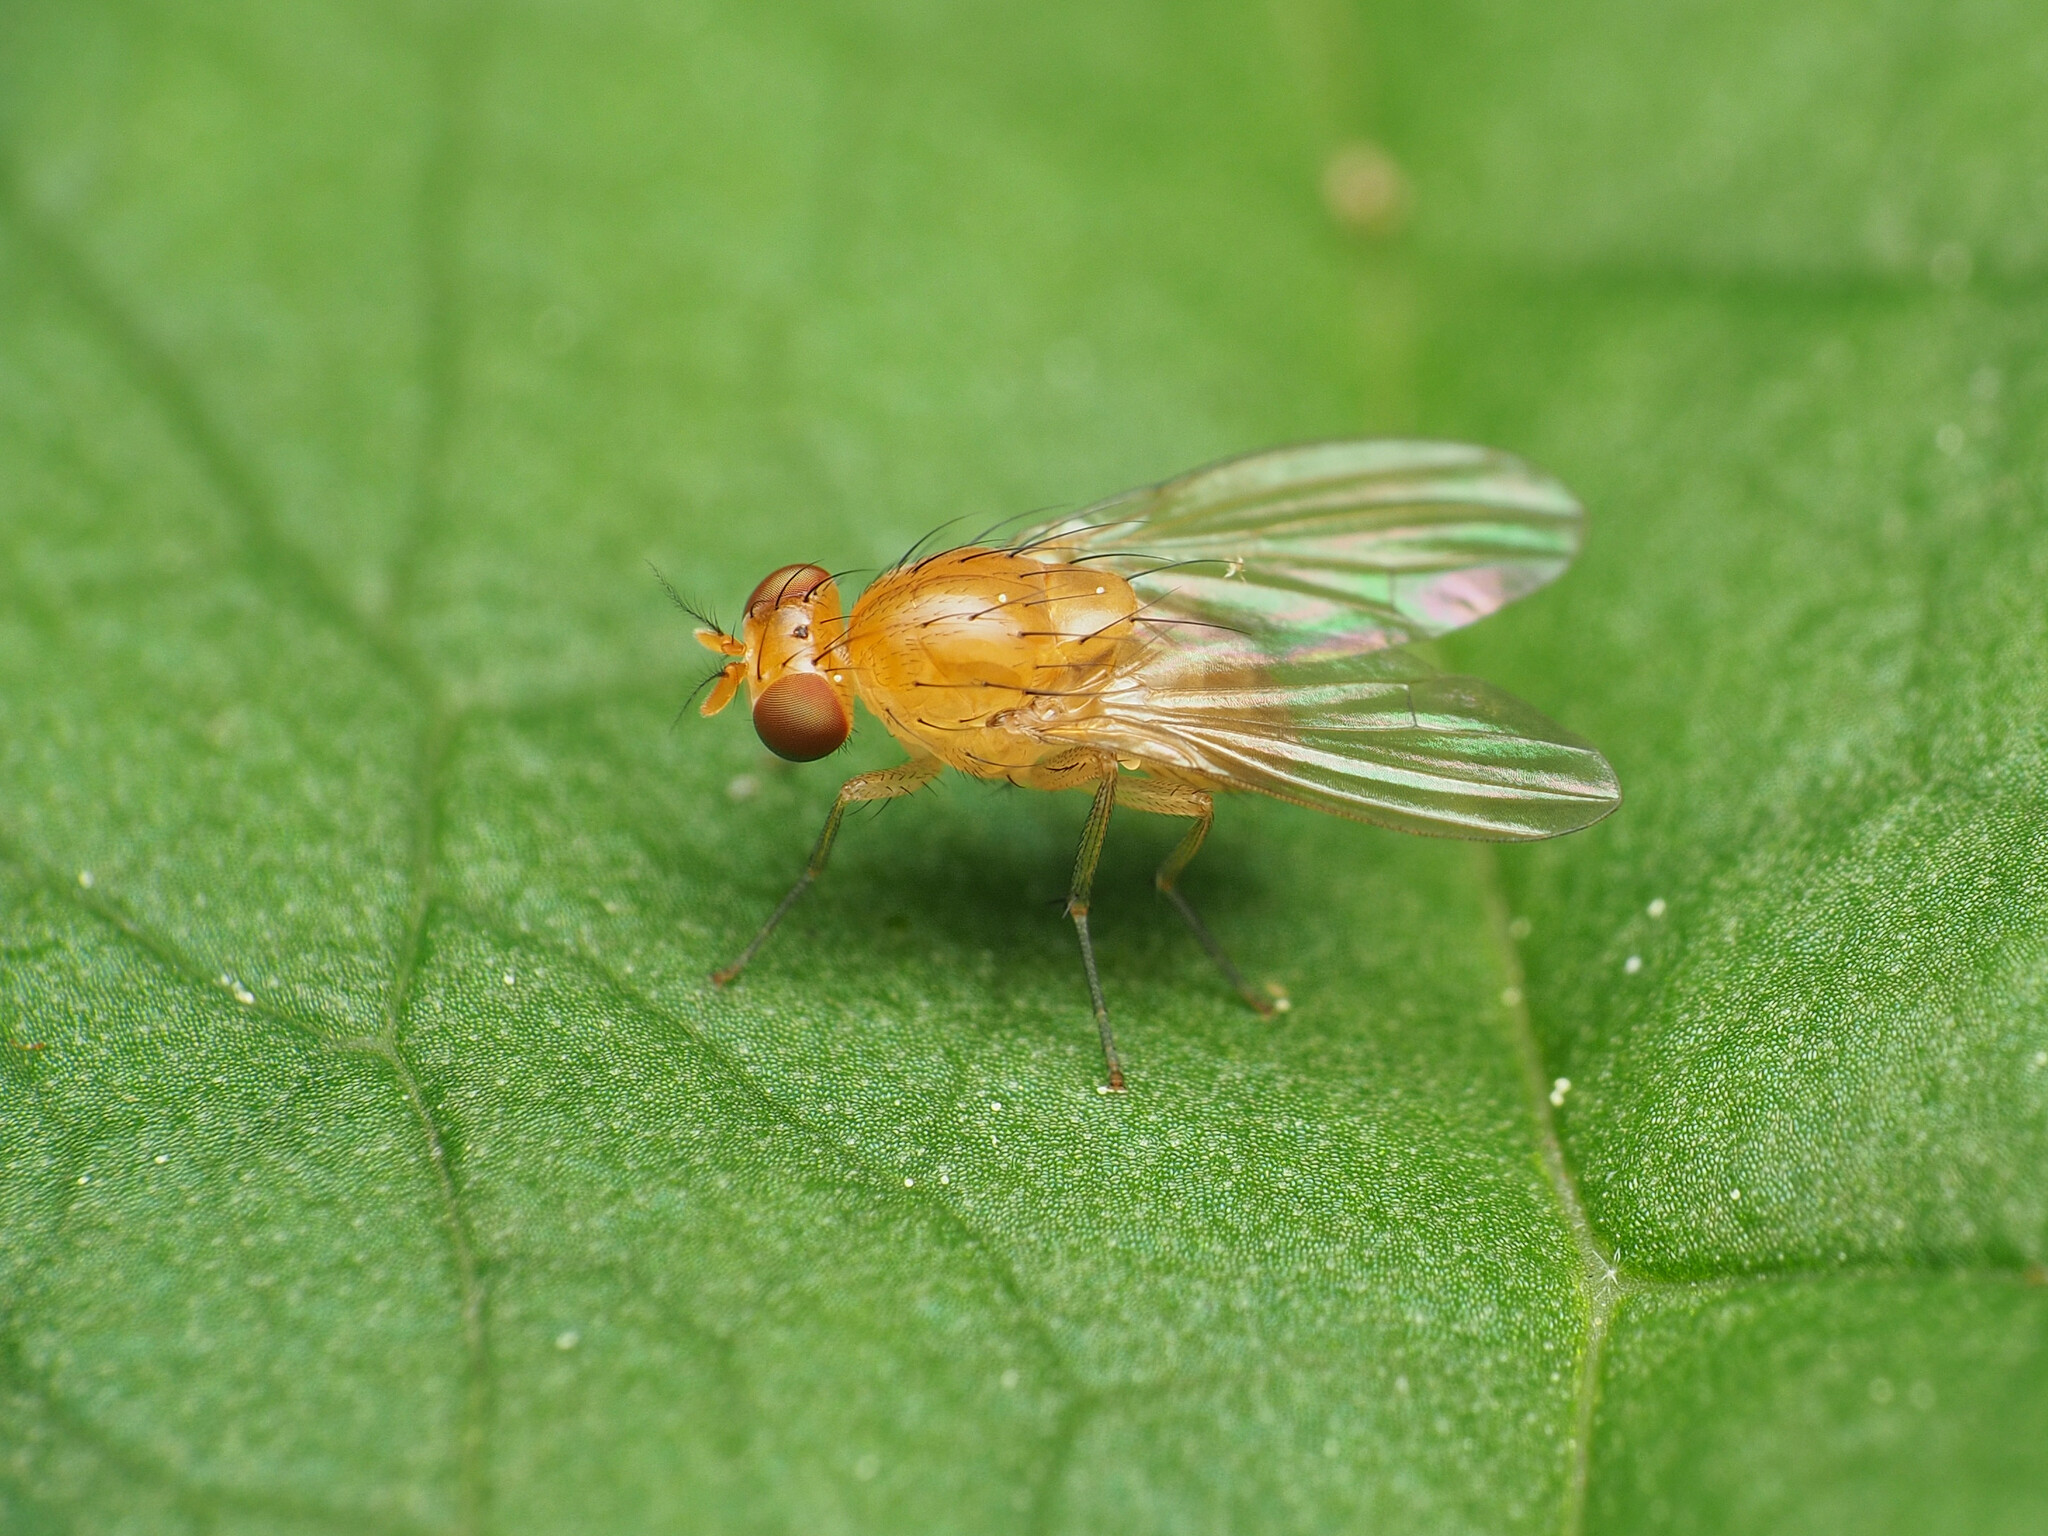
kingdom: Animalia
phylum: Arthropoda
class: Insecta
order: Diptera
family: Lauxaniidae
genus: Neogriphoneura
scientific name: Neogriphoneura sordida
